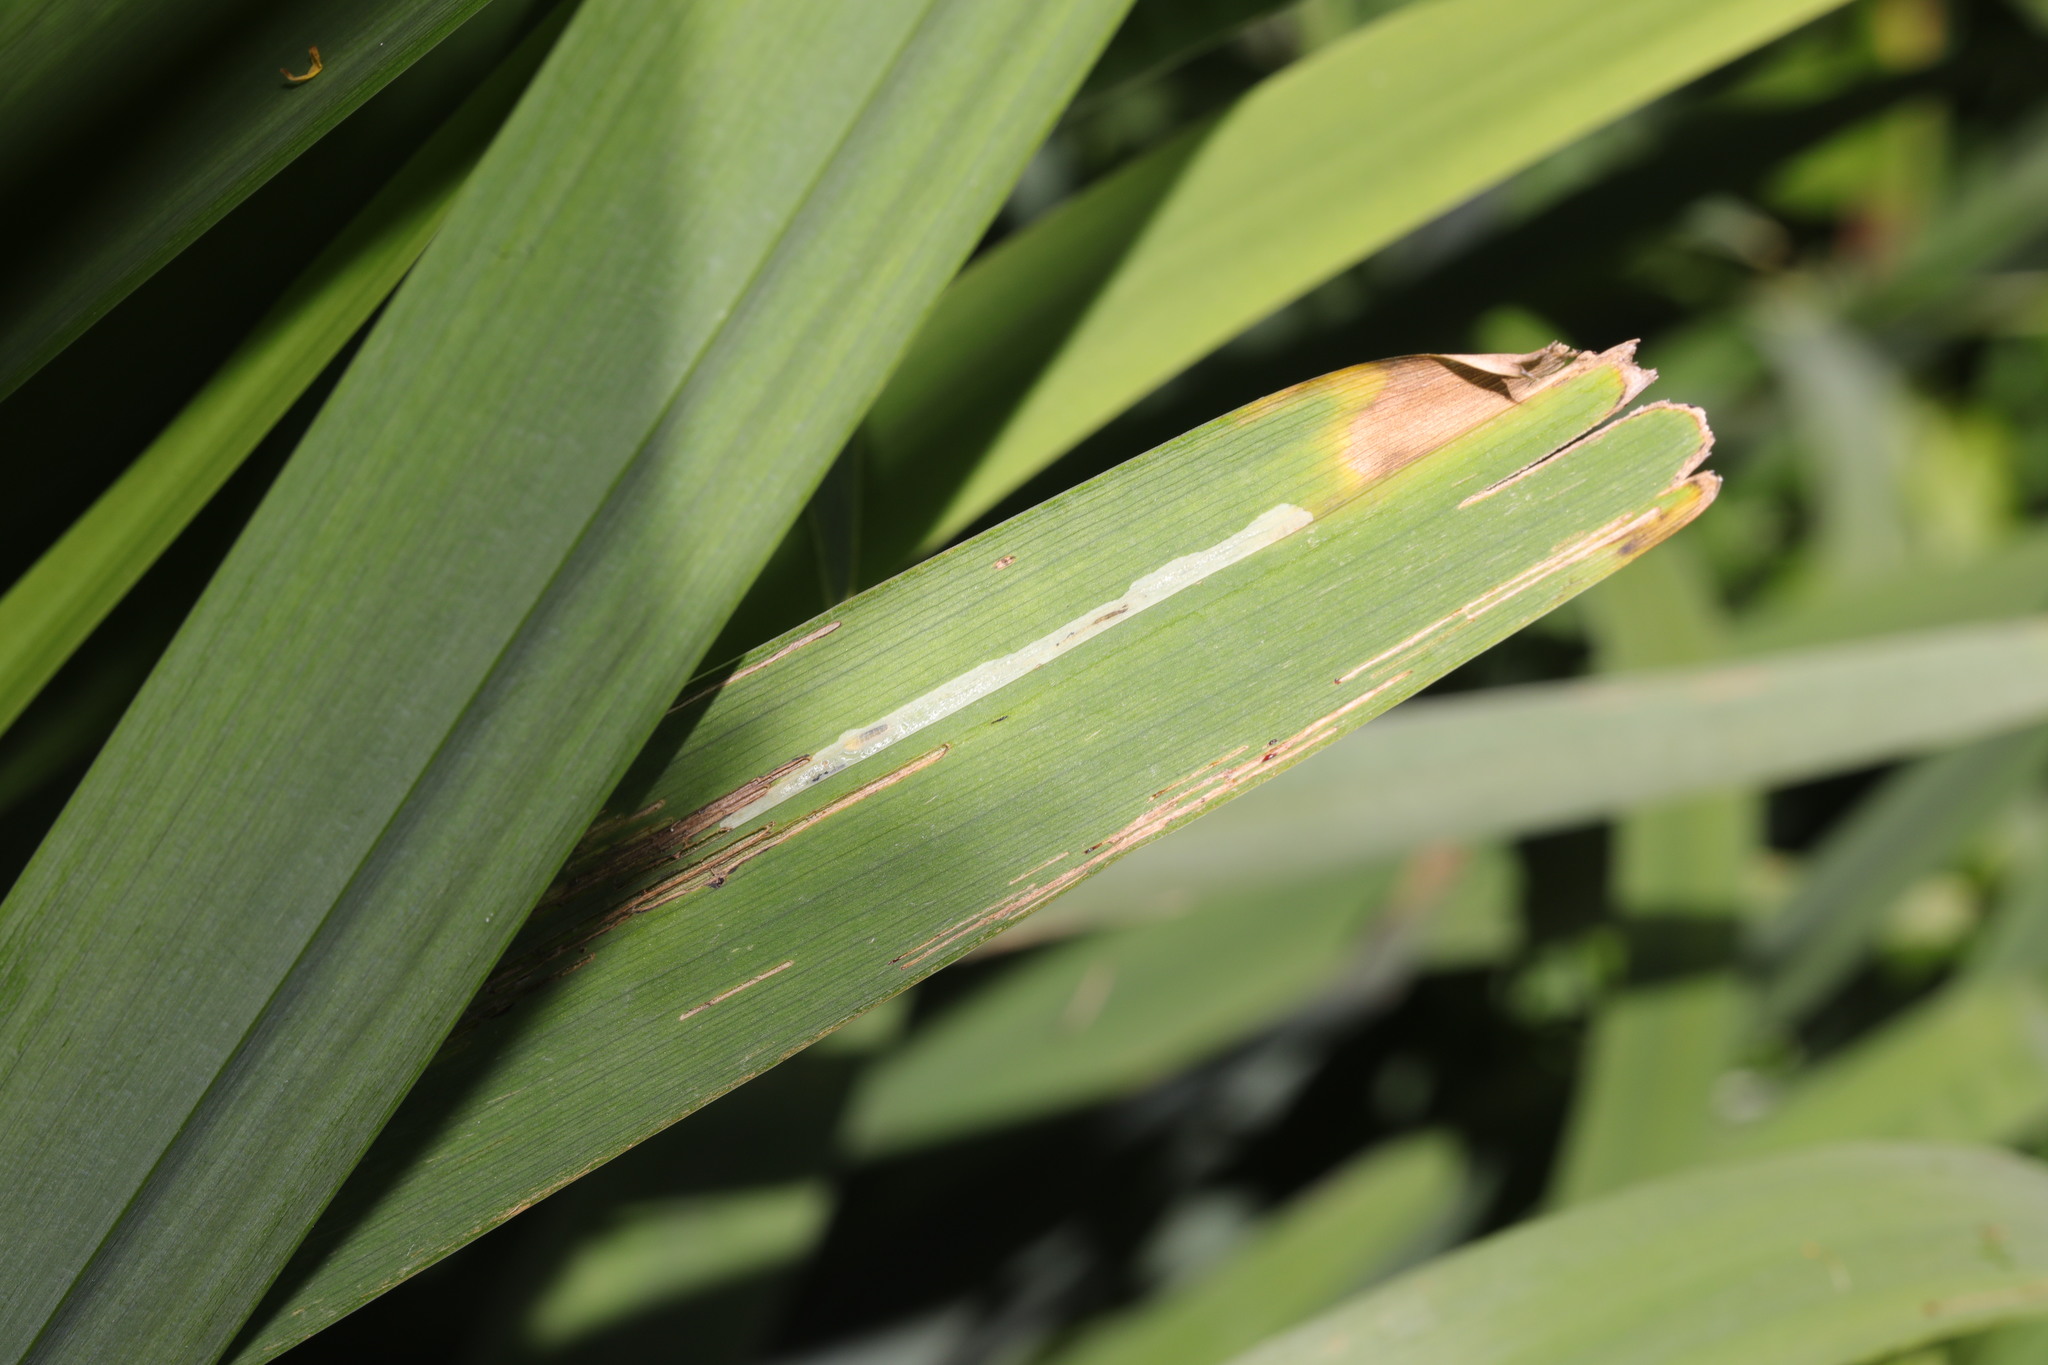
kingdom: Animalia
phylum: Arthropoda
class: Insecta
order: Diptera
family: Agromyzidae
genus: Cerodontha
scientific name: Cerodontha ircos
